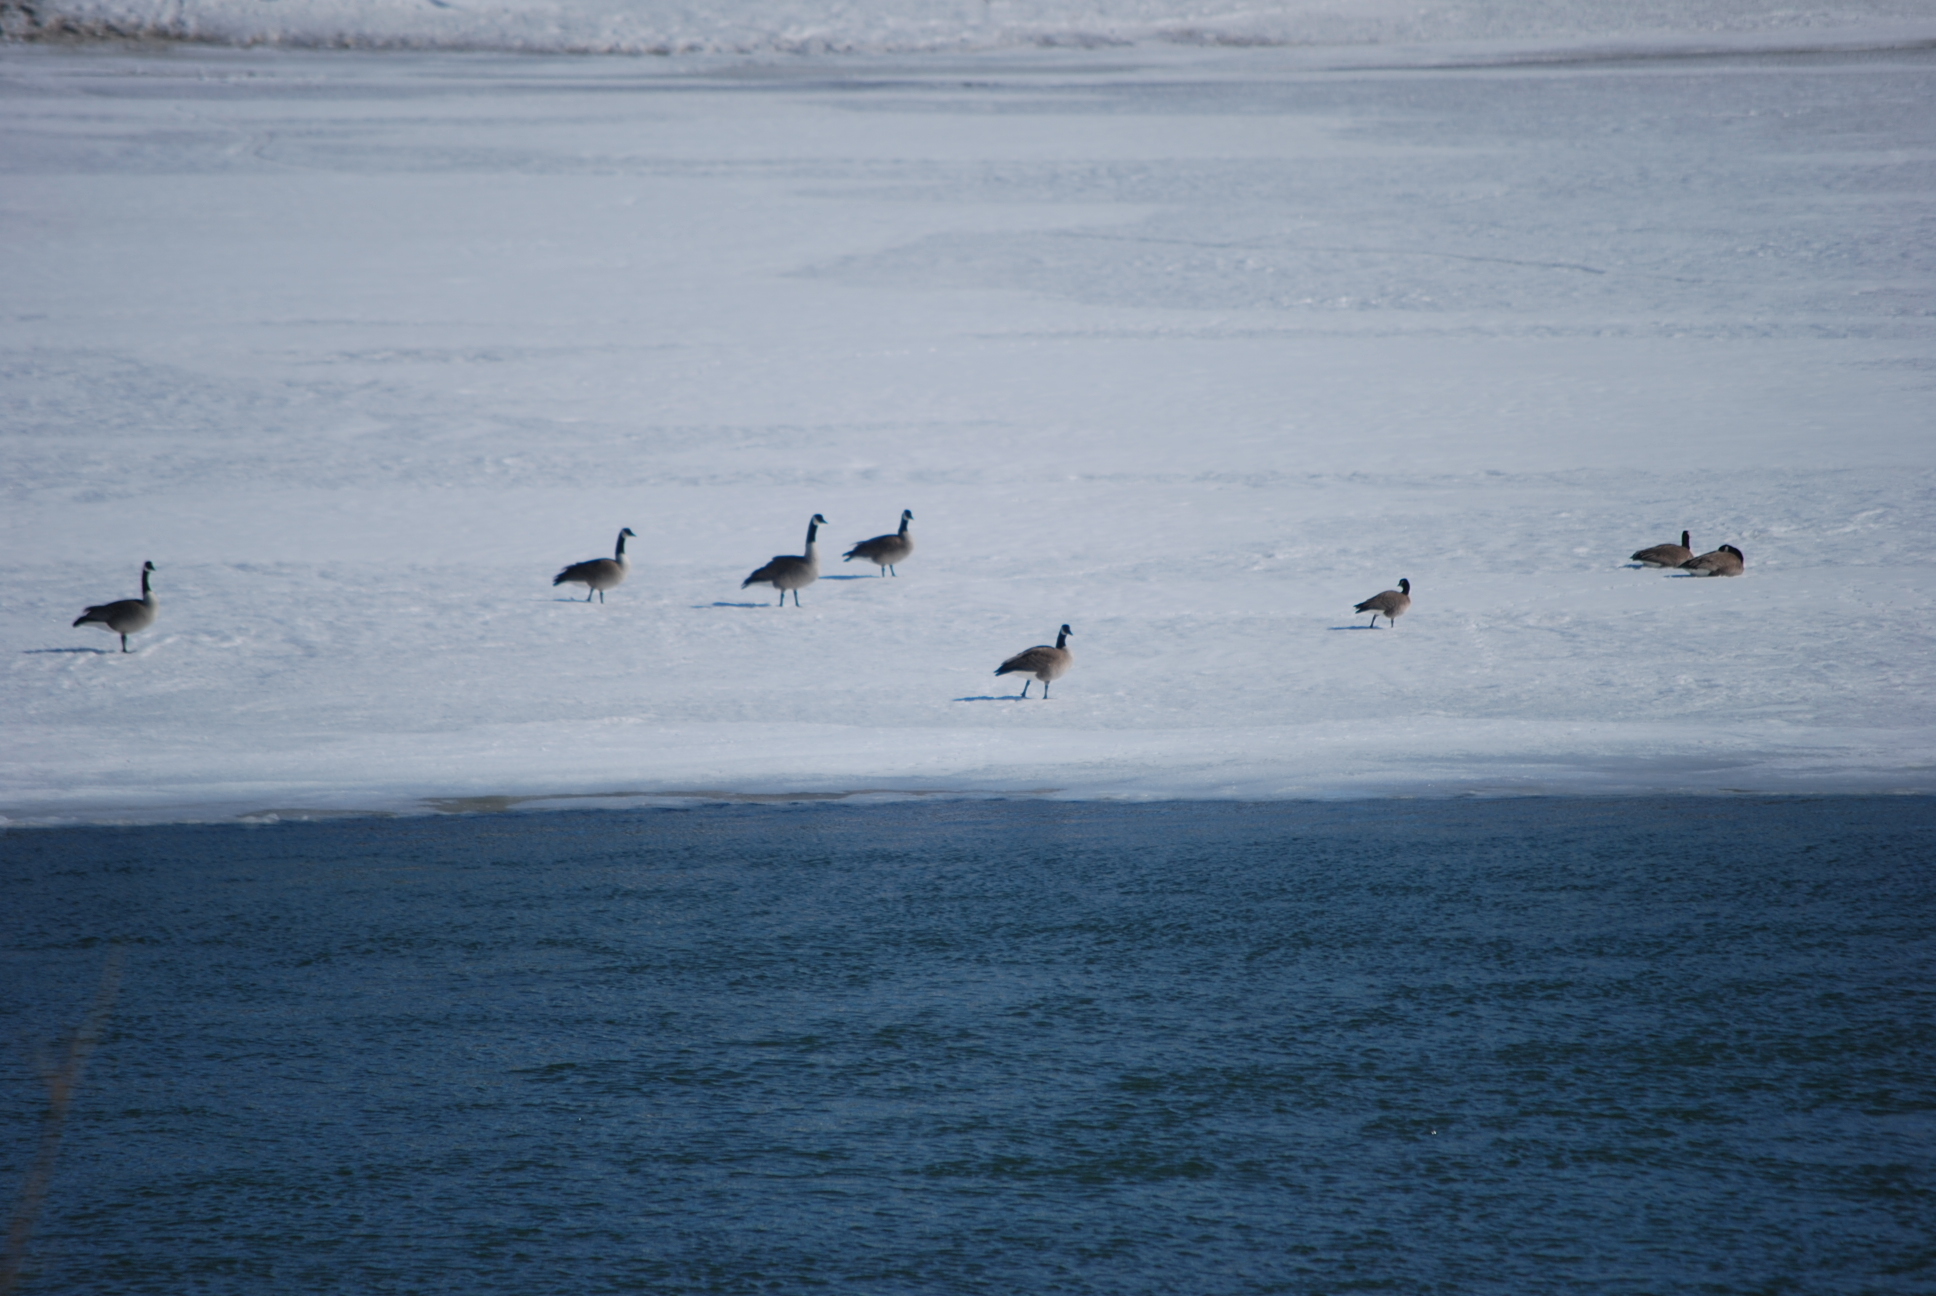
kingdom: Animalia
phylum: Chordata
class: Aves
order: Anseriformes
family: Anatidae
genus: Branta
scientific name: Branta canadensis
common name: Canada goose
